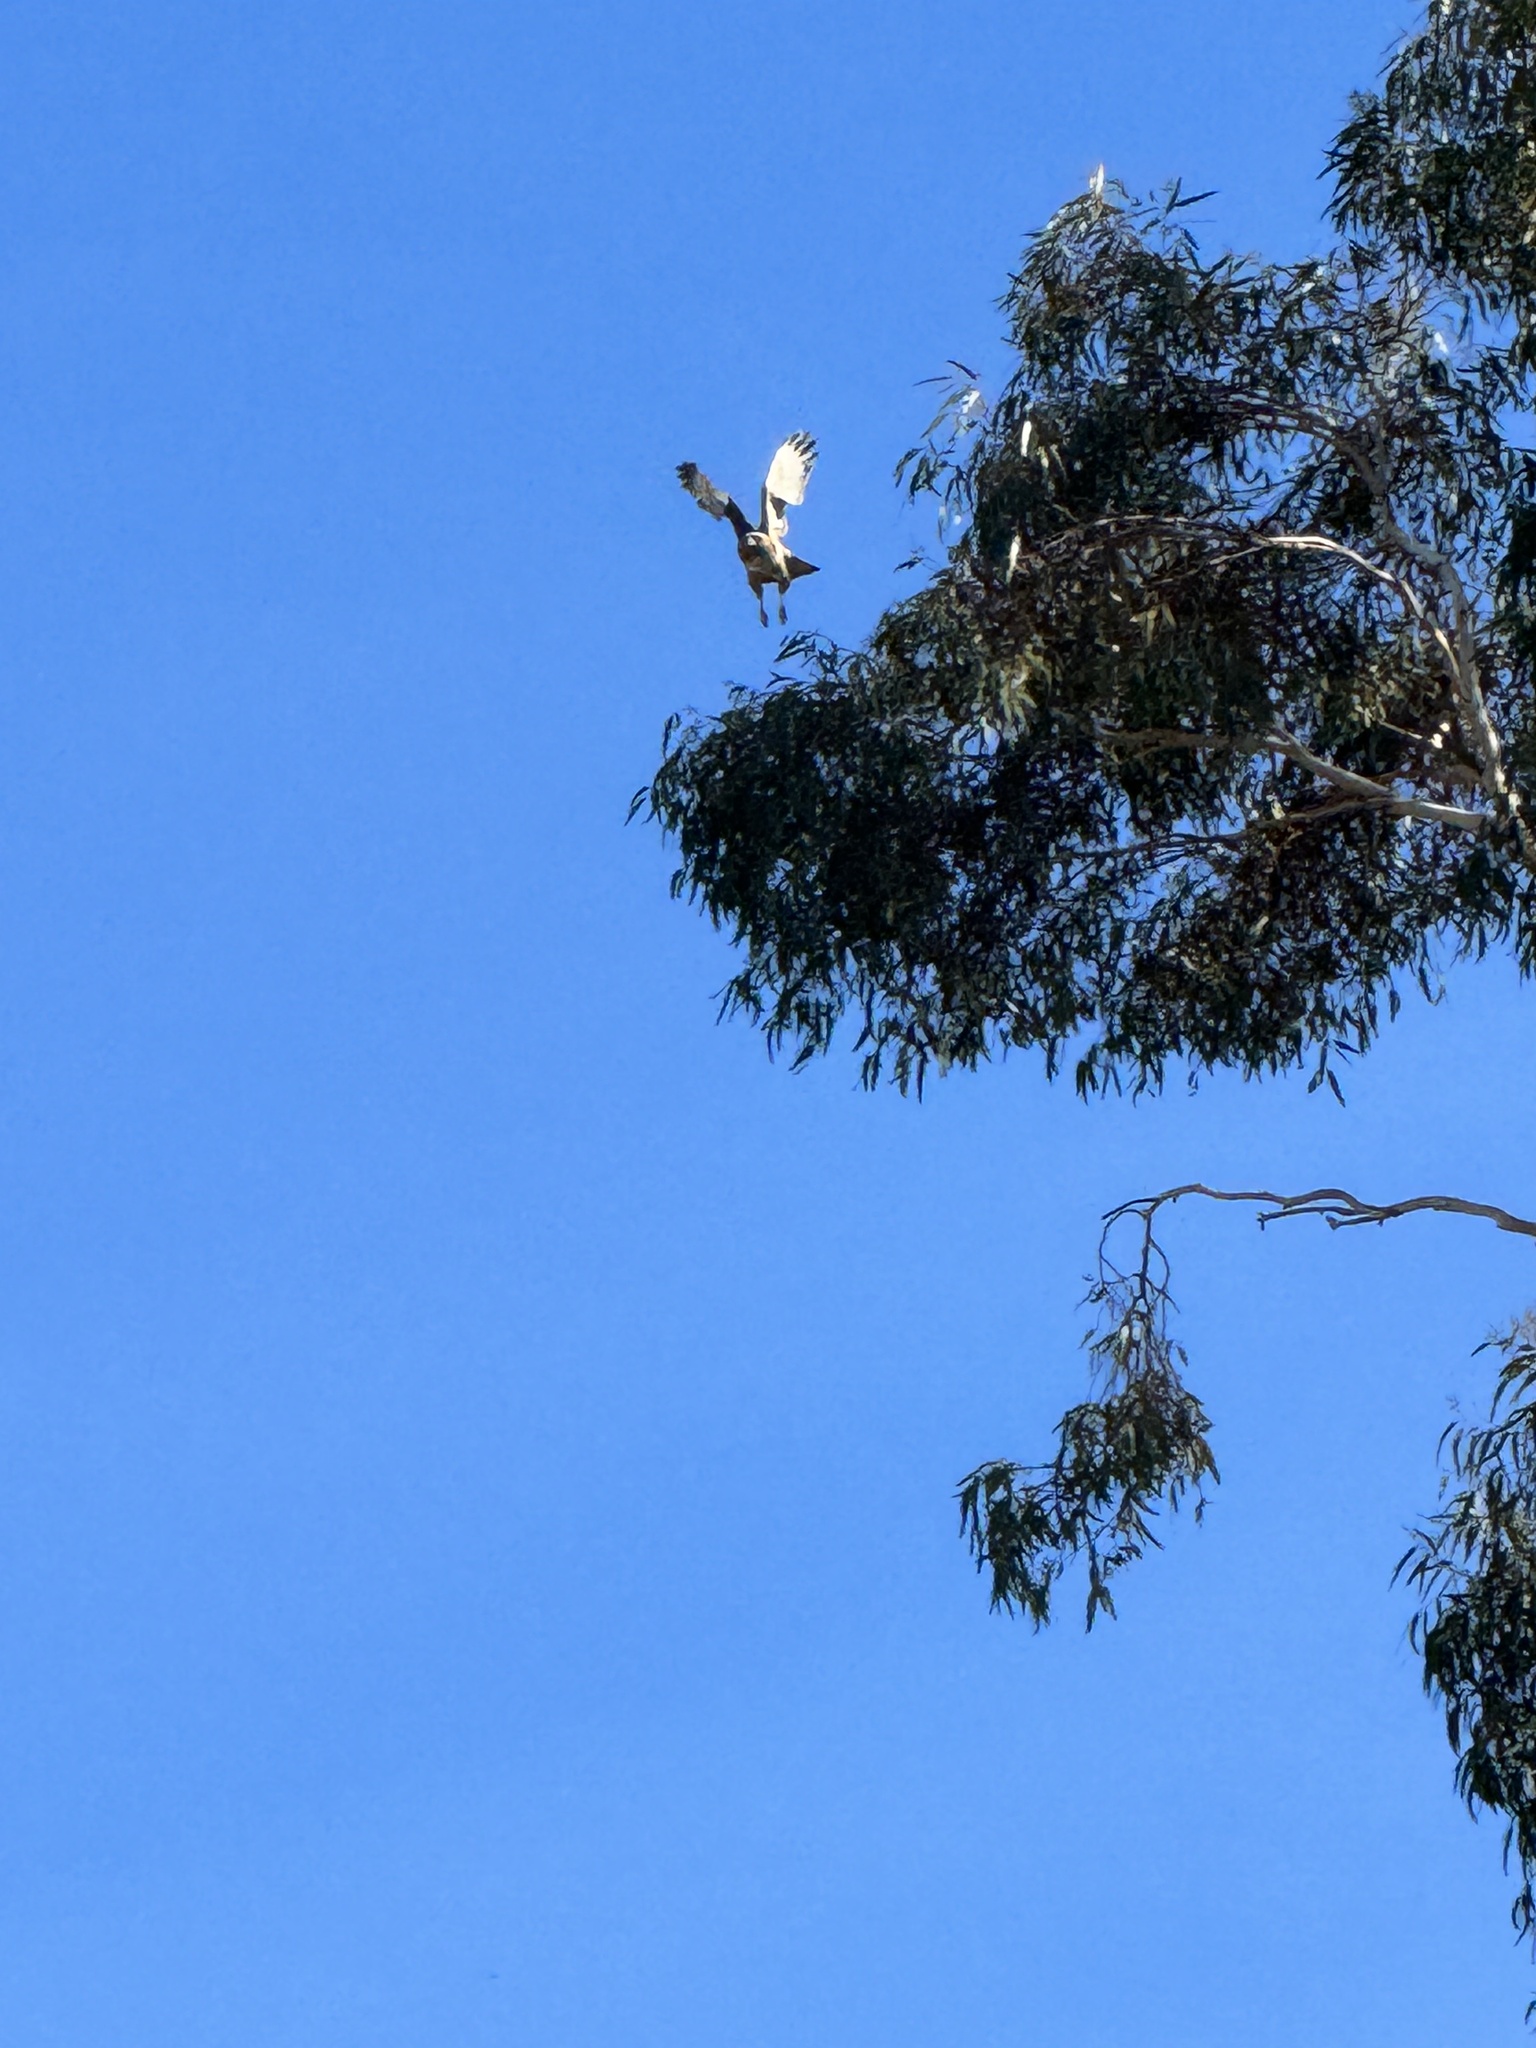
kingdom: Animalia
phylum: Chordata
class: Aves
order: Accipitriformes
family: Accipitridae
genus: Buteo
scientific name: Buteo jamaicensis
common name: Red-tailed hawk
